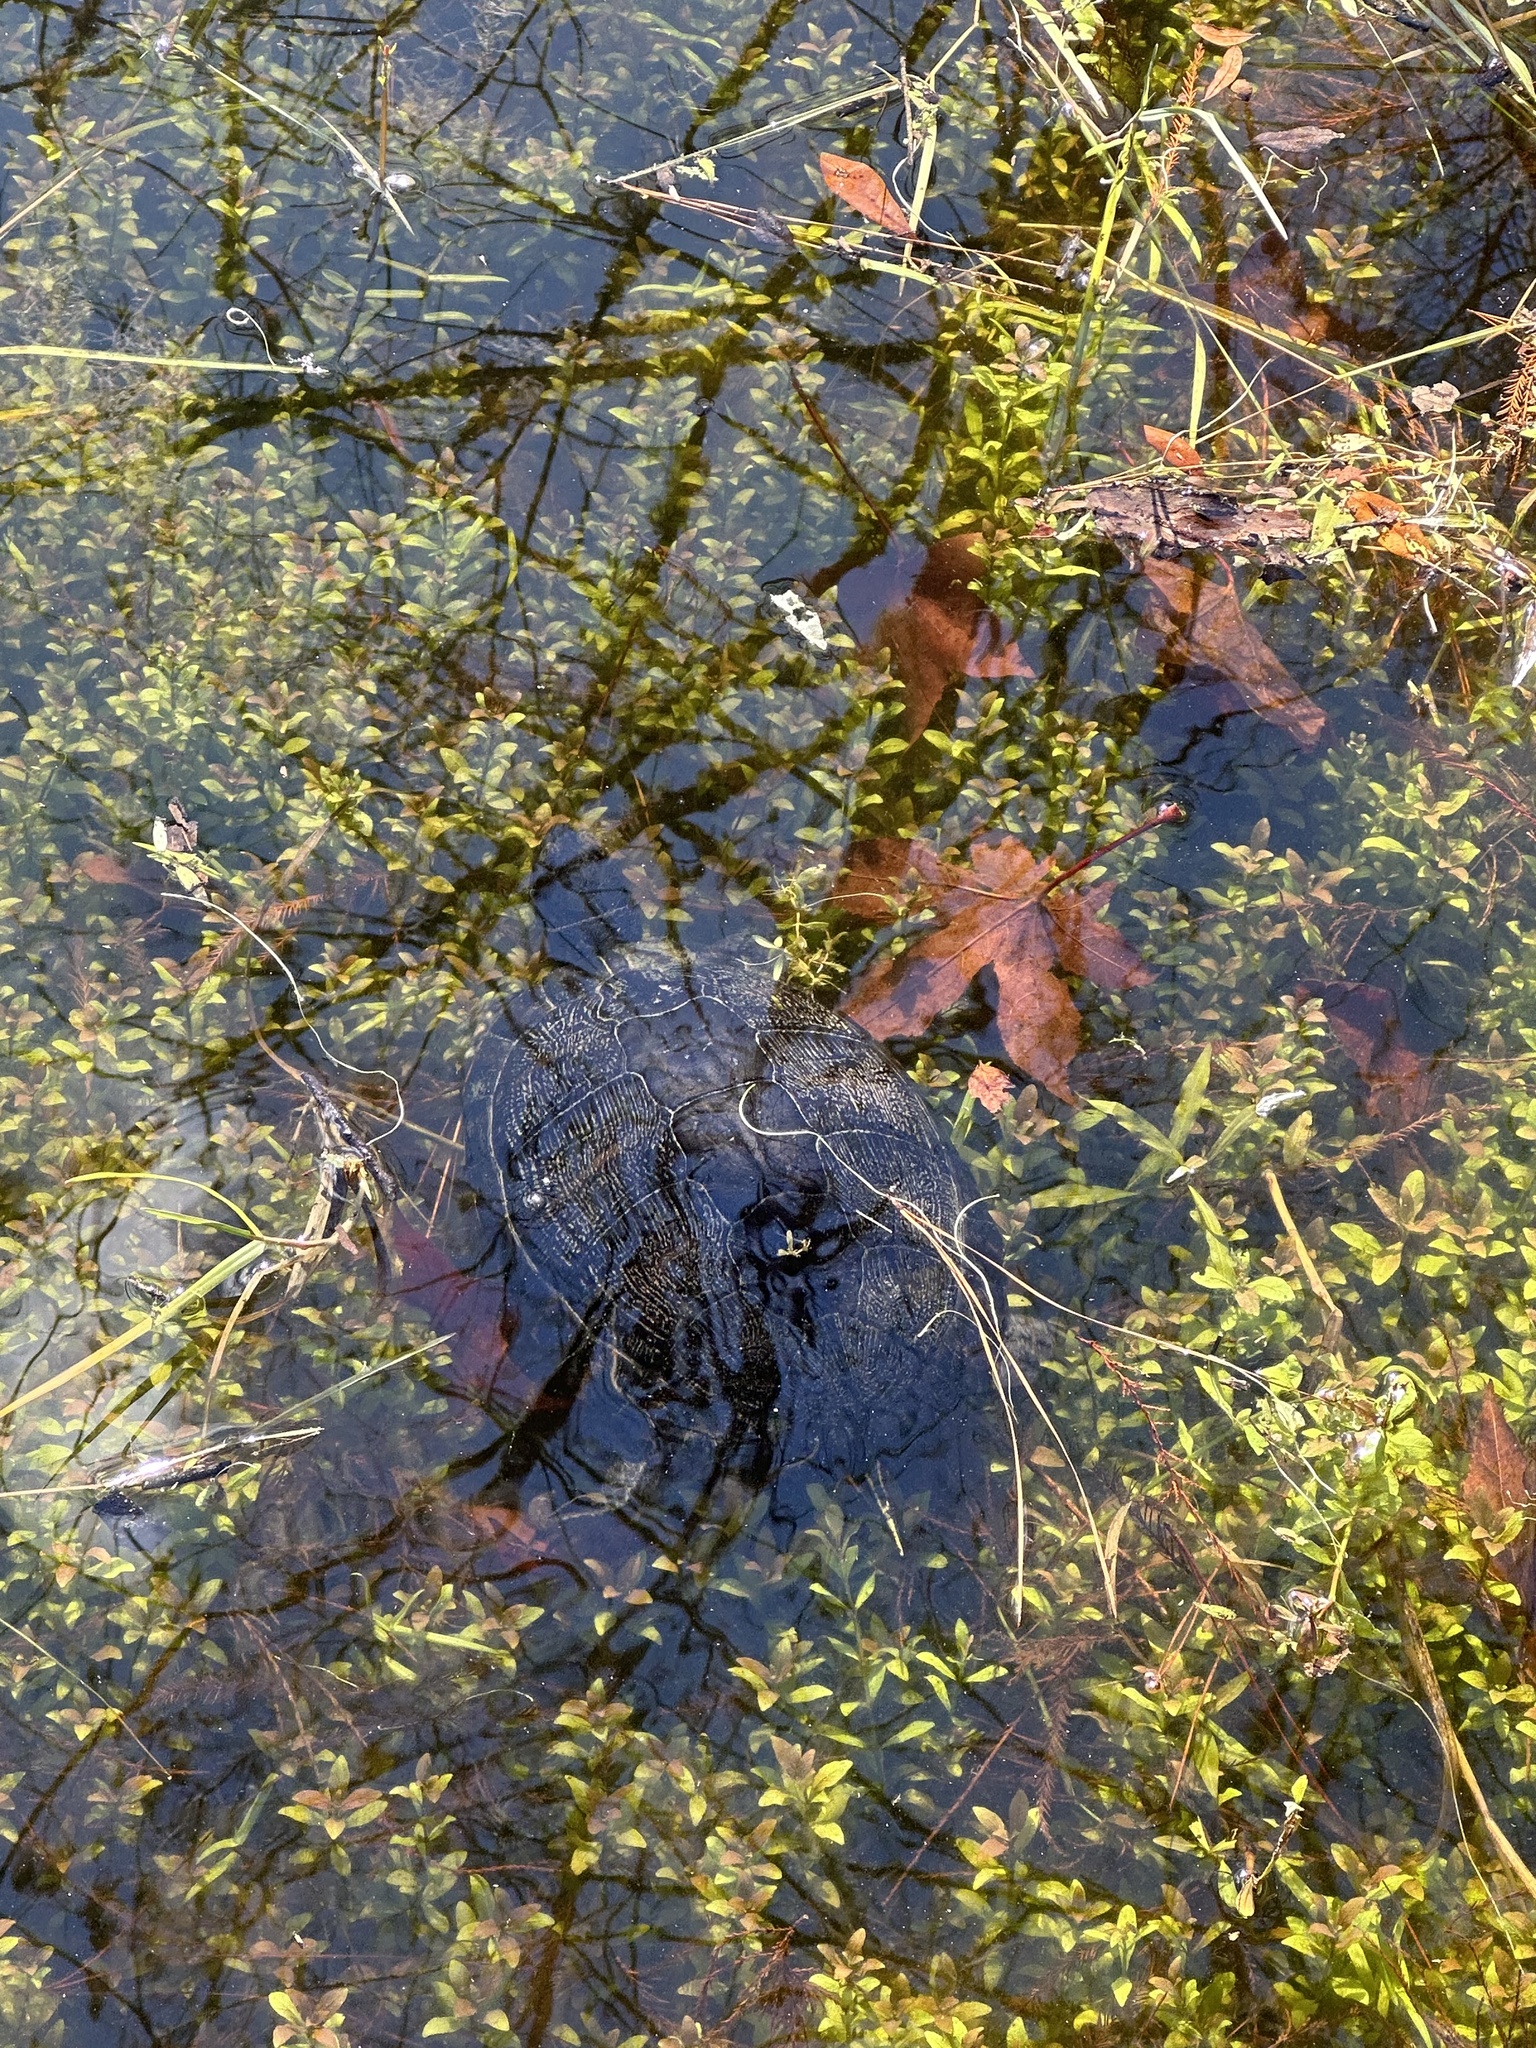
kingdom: Animalia
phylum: Chordata
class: Testudines
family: Emydidae
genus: Trachemys
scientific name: Trachemys scripta
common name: Slider
